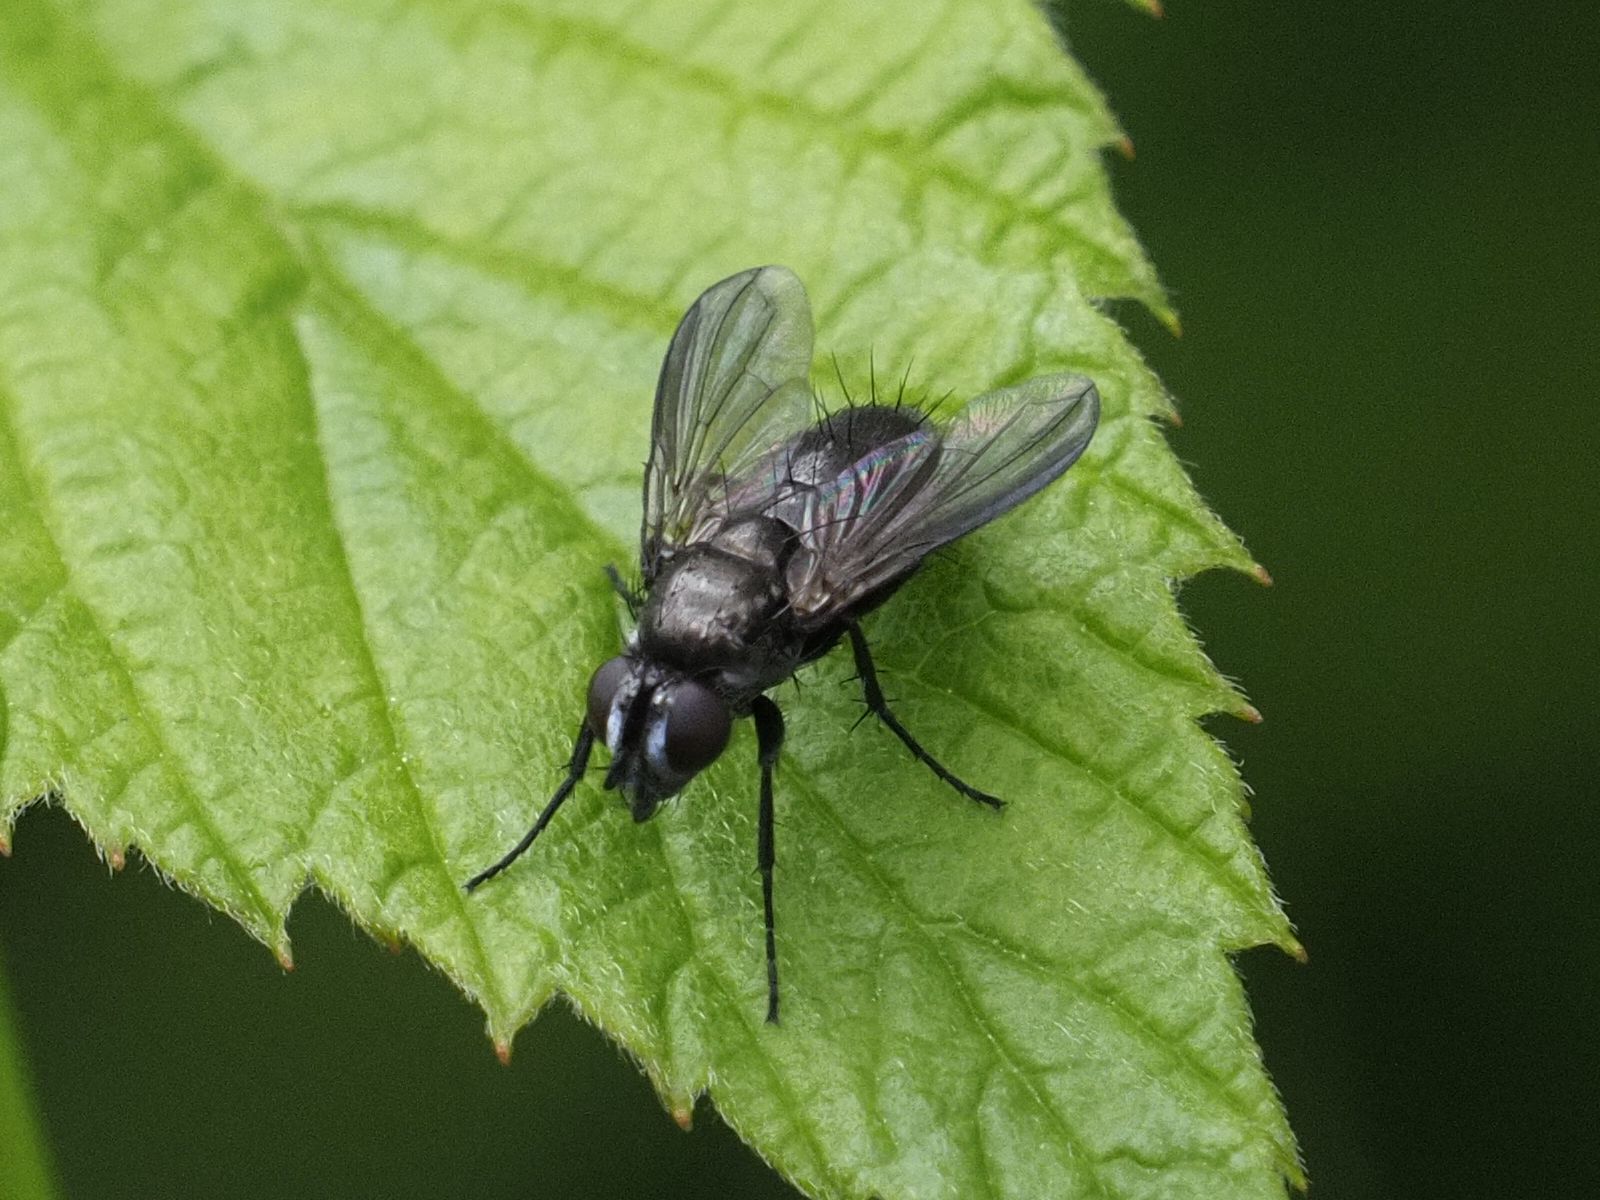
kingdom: Animalia
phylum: Arthropoda
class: Insecta
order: Diptera
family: Calliphoridae
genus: Rhinophora
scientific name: Rhinophora lepida
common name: Pouting woodlouse-fly
